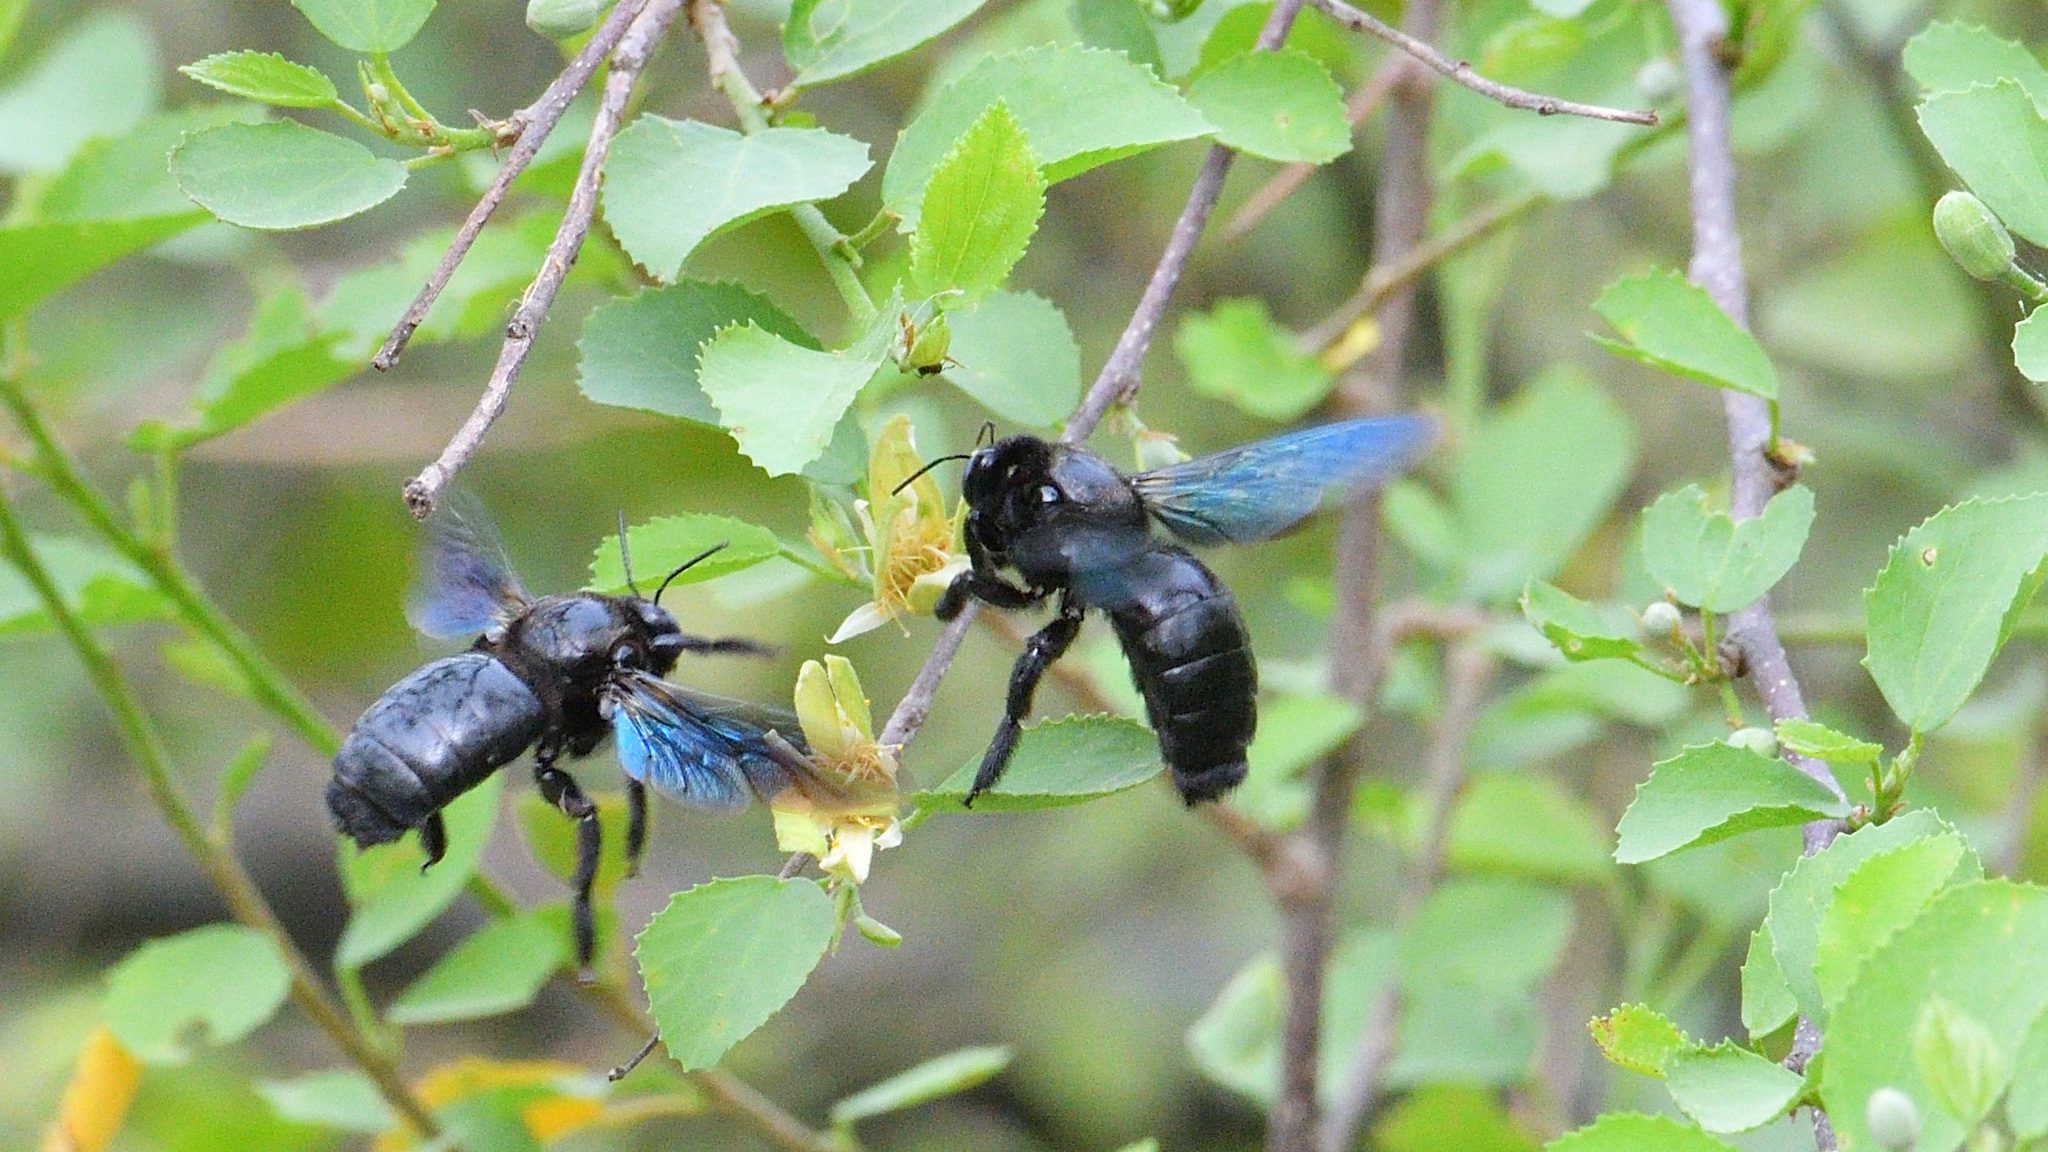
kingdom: Animalia
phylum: Arthropoda
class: Insecta
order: Hymenoptera
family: Apidae
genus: Xylocopa
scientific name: Xylocopa fenestrata
